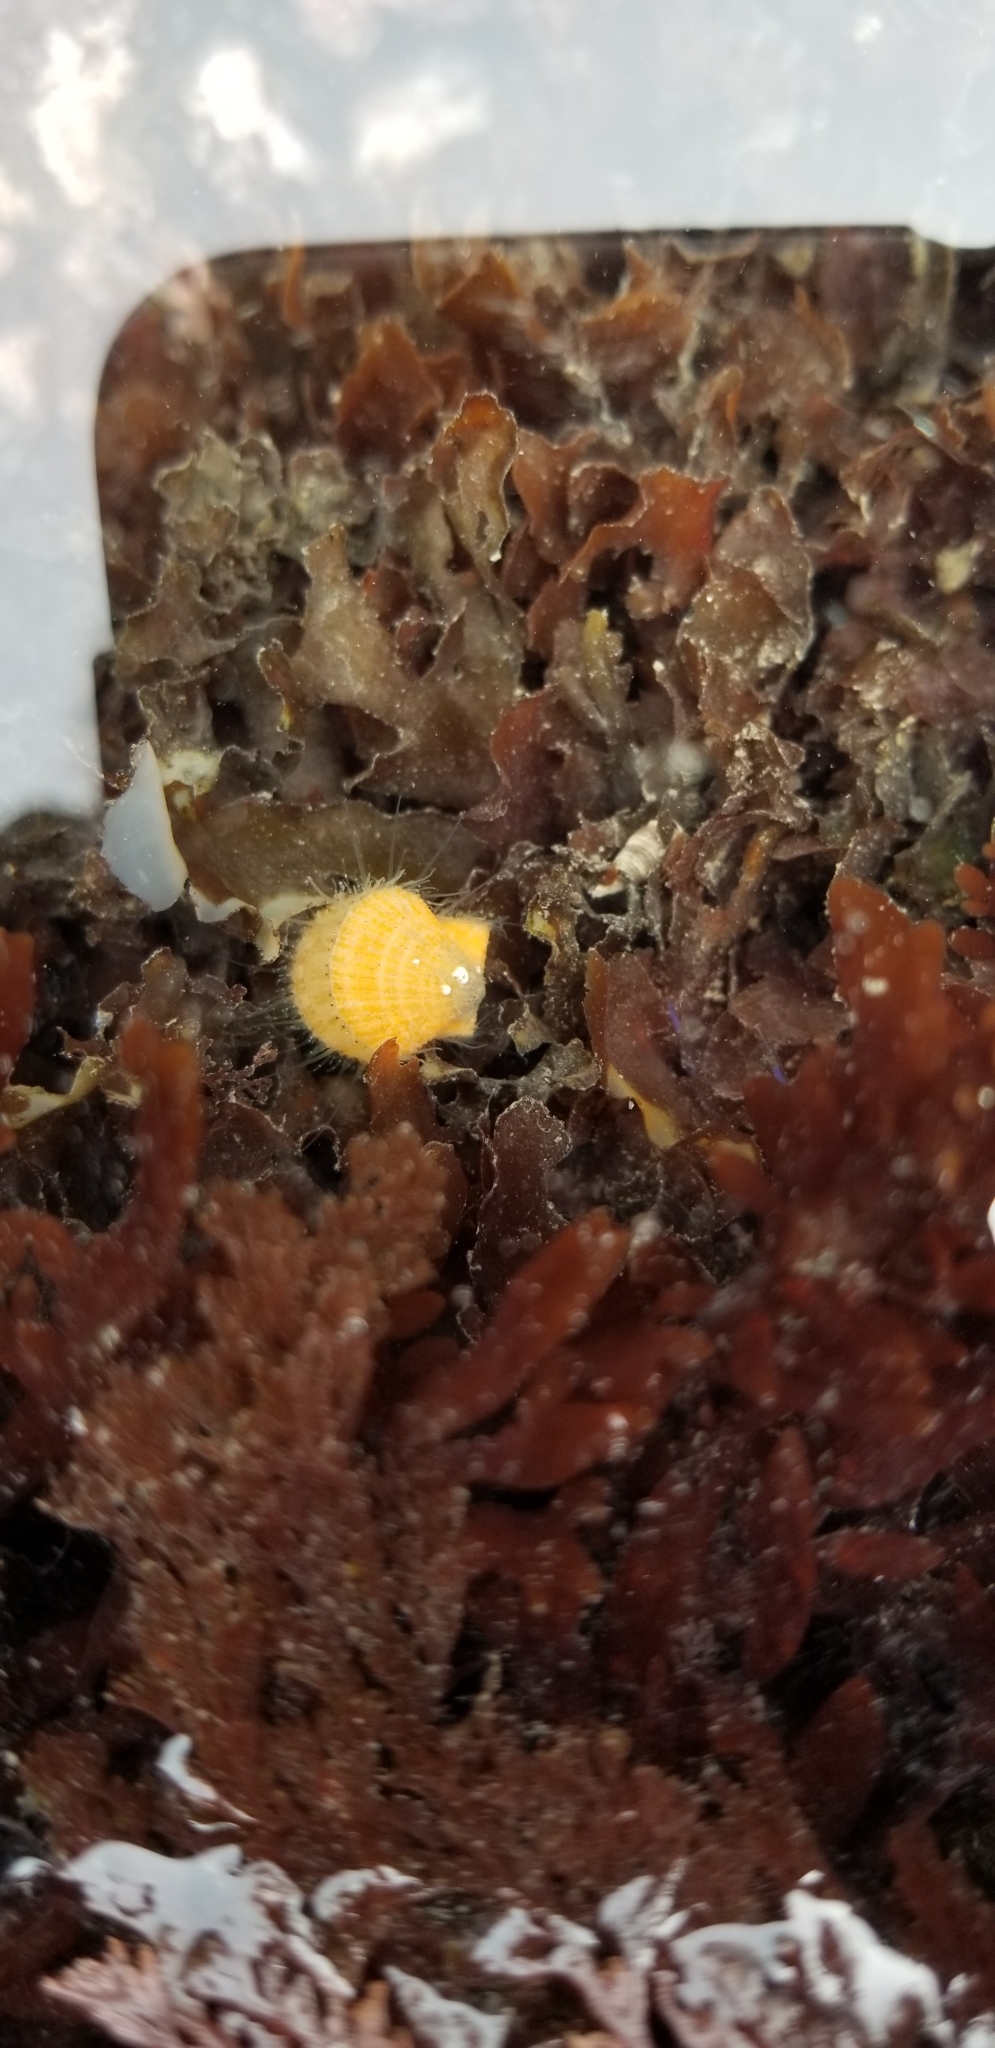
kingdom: Animalia
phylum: Mollusca
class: Bivalvia
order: Pectinida
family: Pectinidae
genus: Crassadoma
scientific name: Crassadoma gigantea
